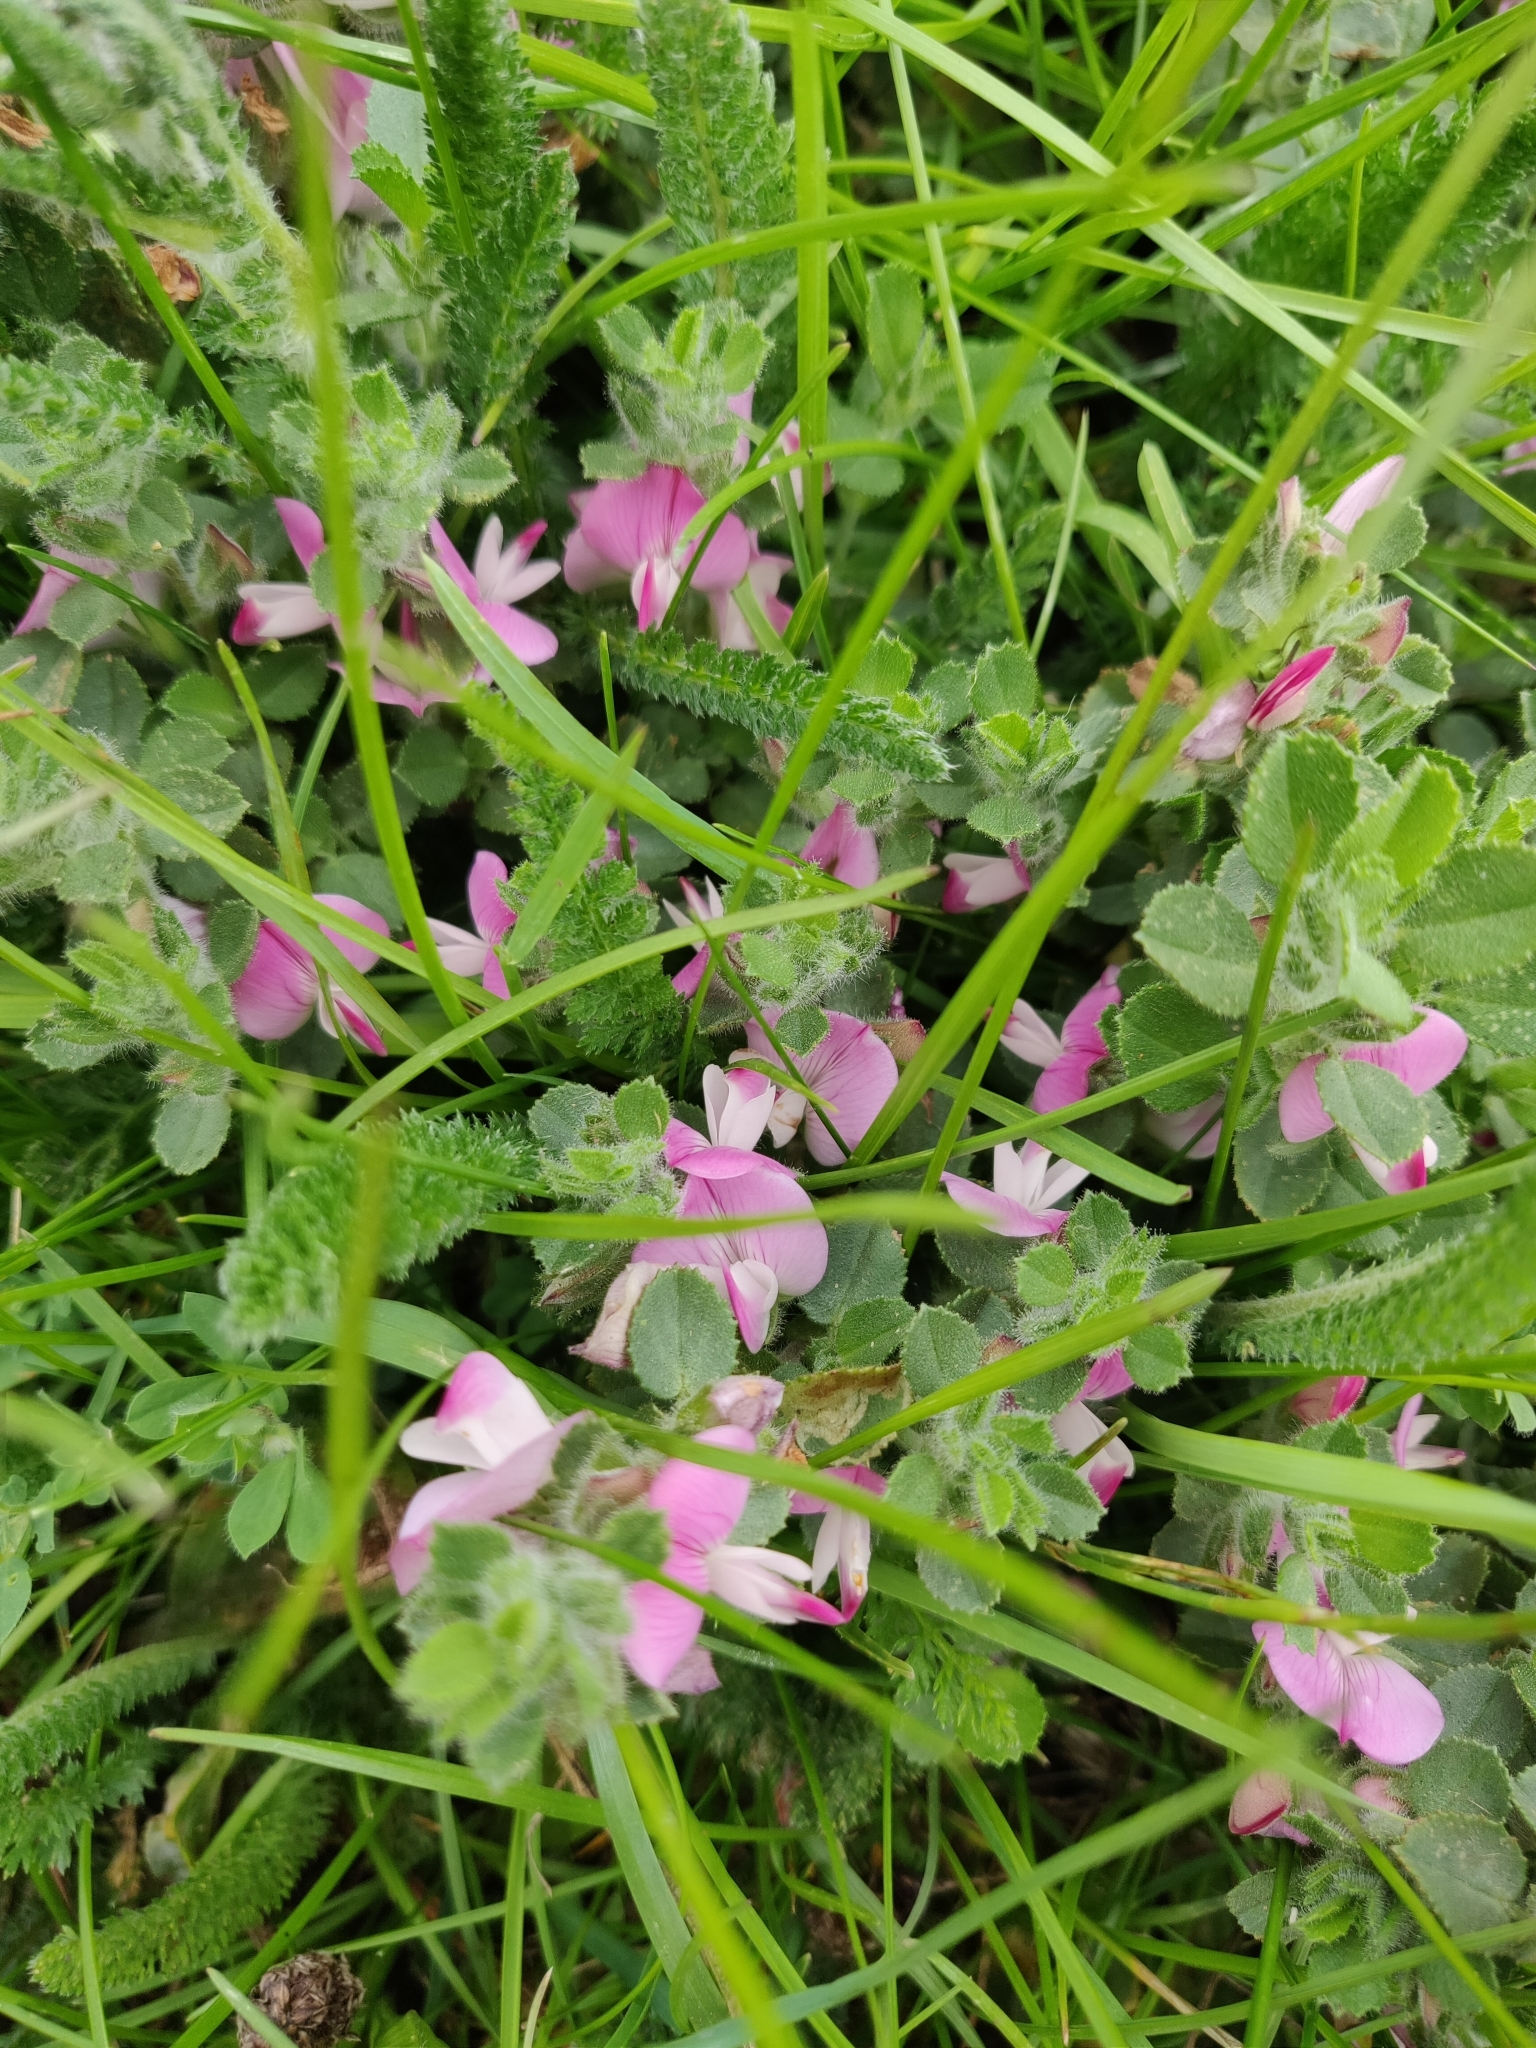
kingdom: Plantae
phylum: Tracheophyta
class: Magnoliopsida
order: Fabales
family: Fabaceae
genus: Ononis
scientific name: Ononis spinosa
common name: Spiny restharrow
